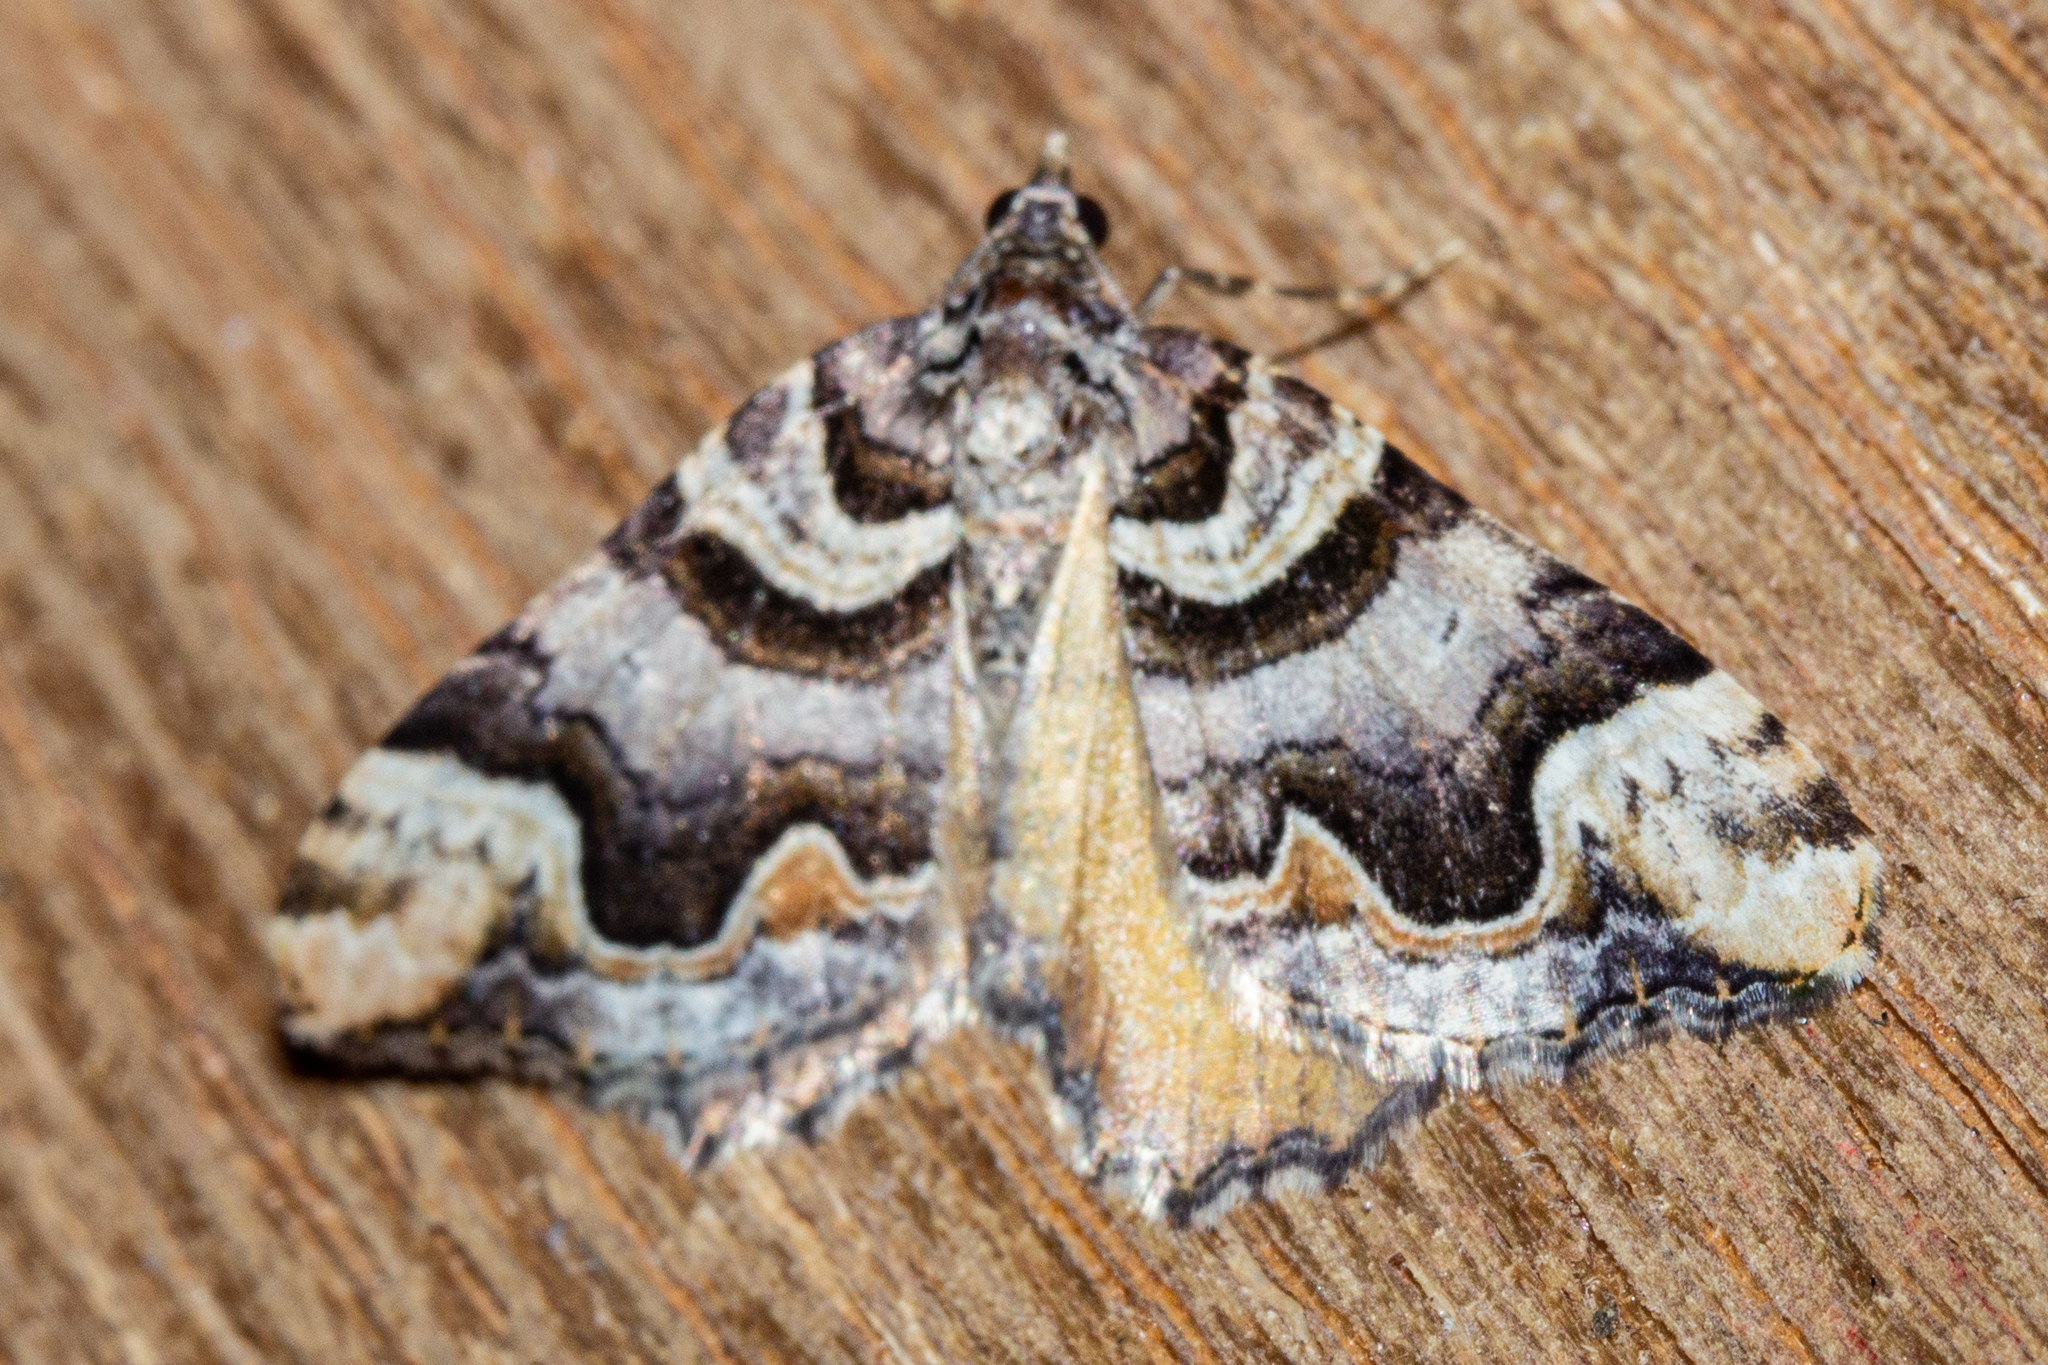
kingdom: Animalia
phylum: Arthropoda
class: Insecta
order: Lepidoptera
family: Geometridae
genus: Asaphodes
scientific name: Asaphodes chlamydota
